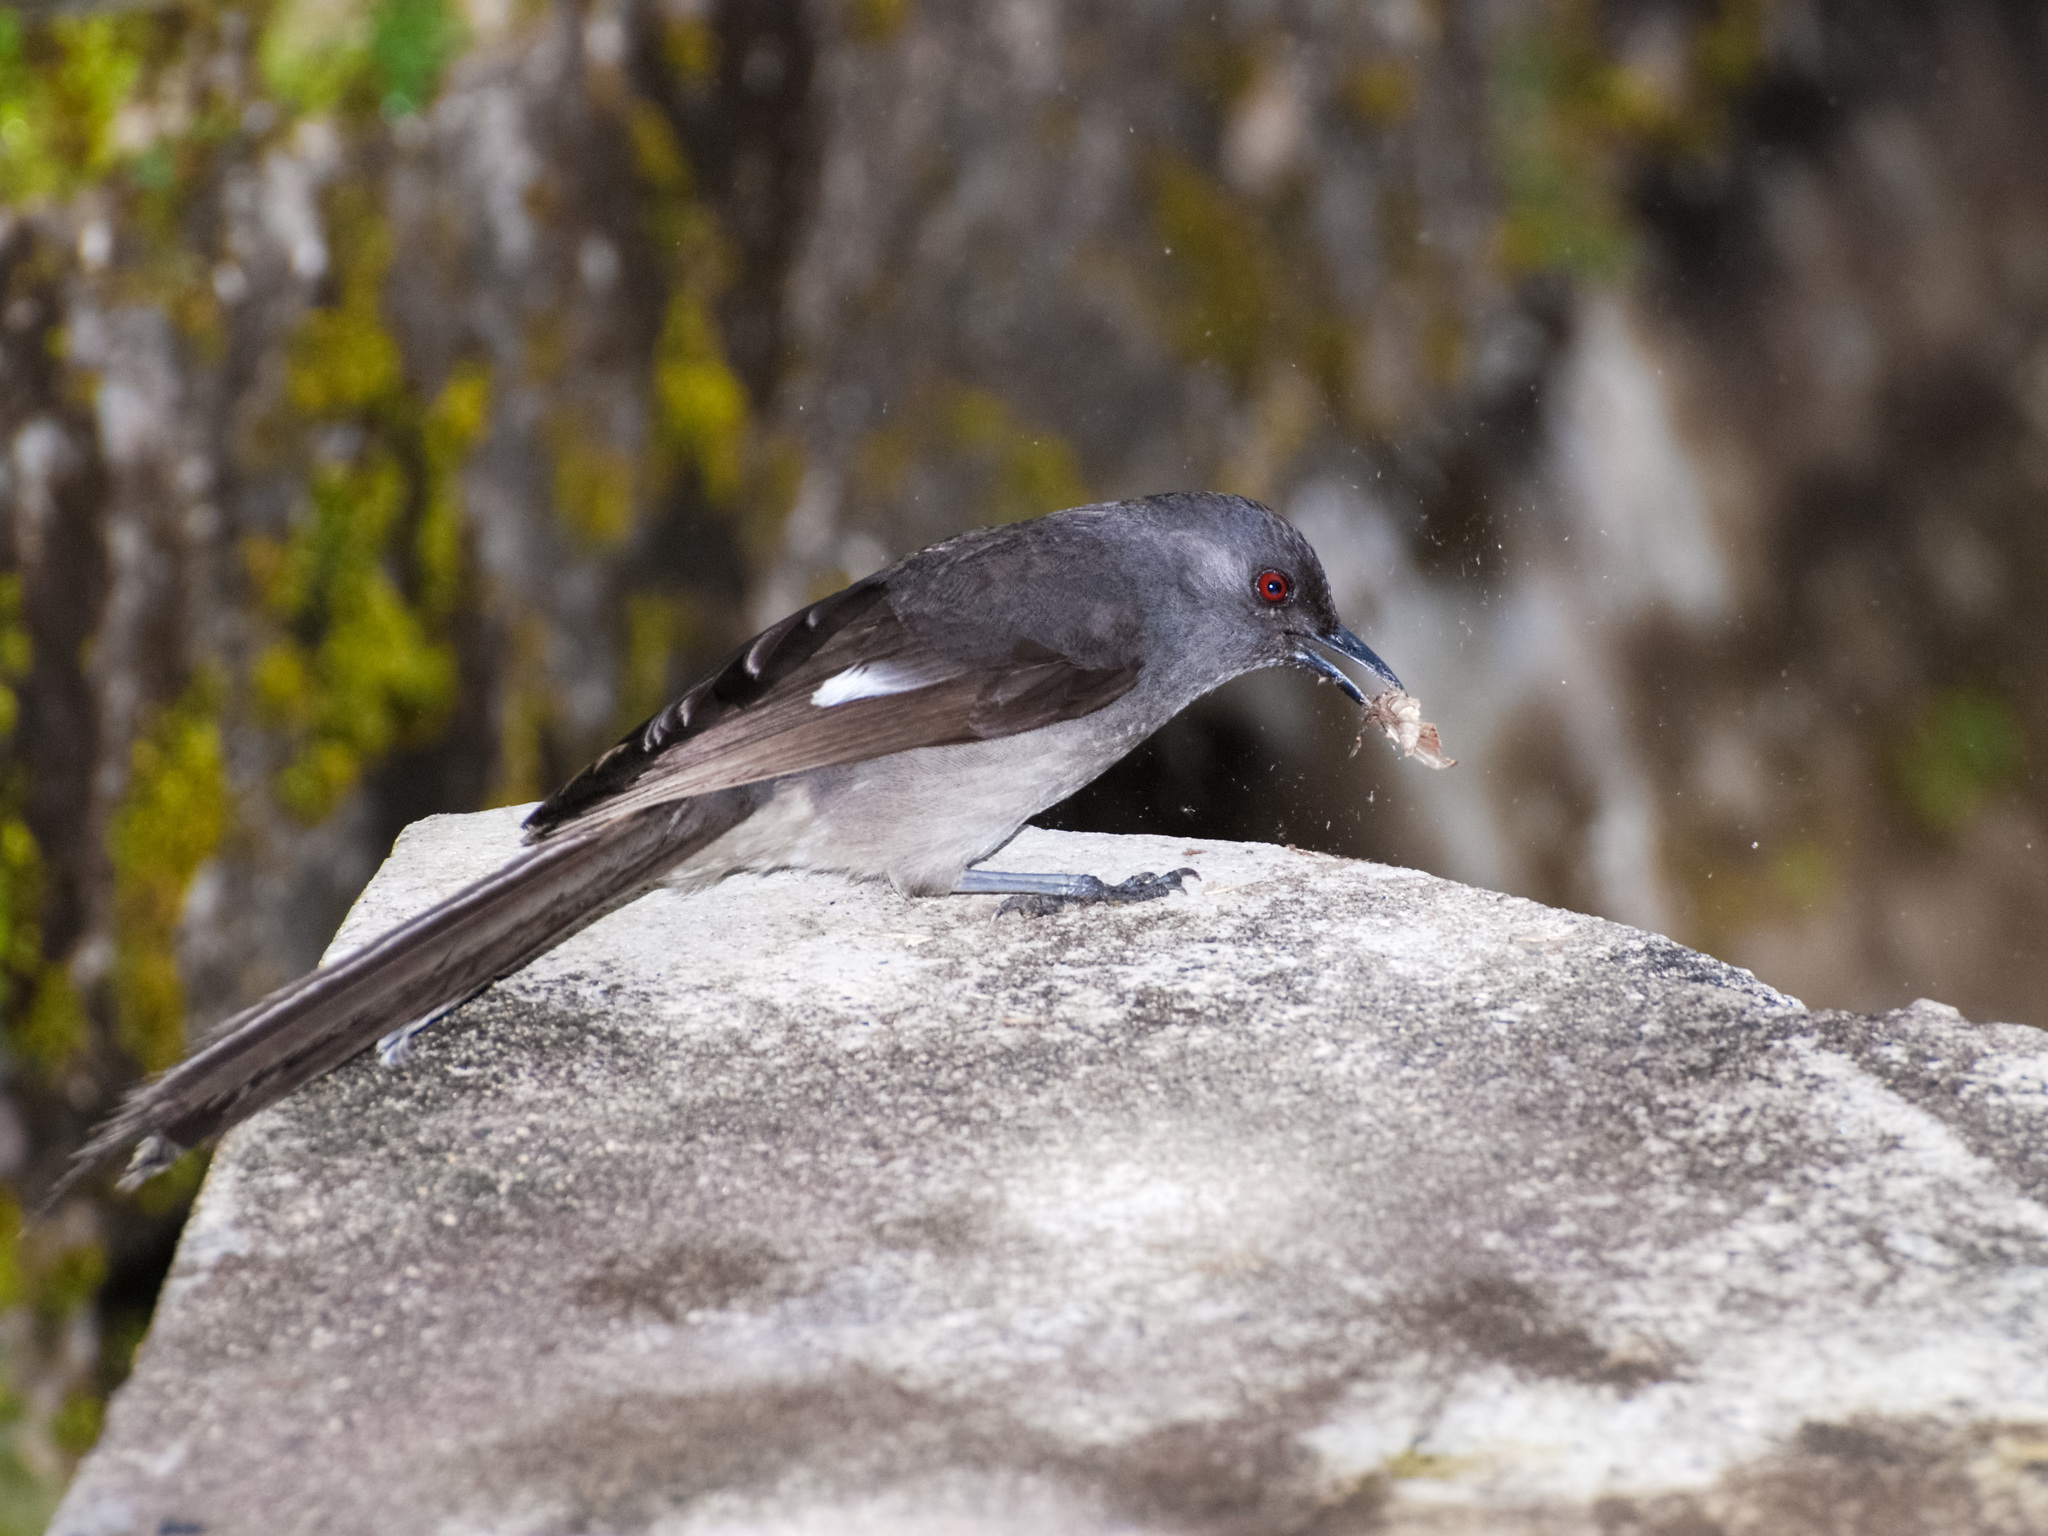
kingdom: Animalia
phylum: Chordata
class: Aves
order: Passeriformes
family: Leiothrichidae
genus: Heterophasia
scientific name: Heterophasia picaoides
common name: Long-tailed sibia
